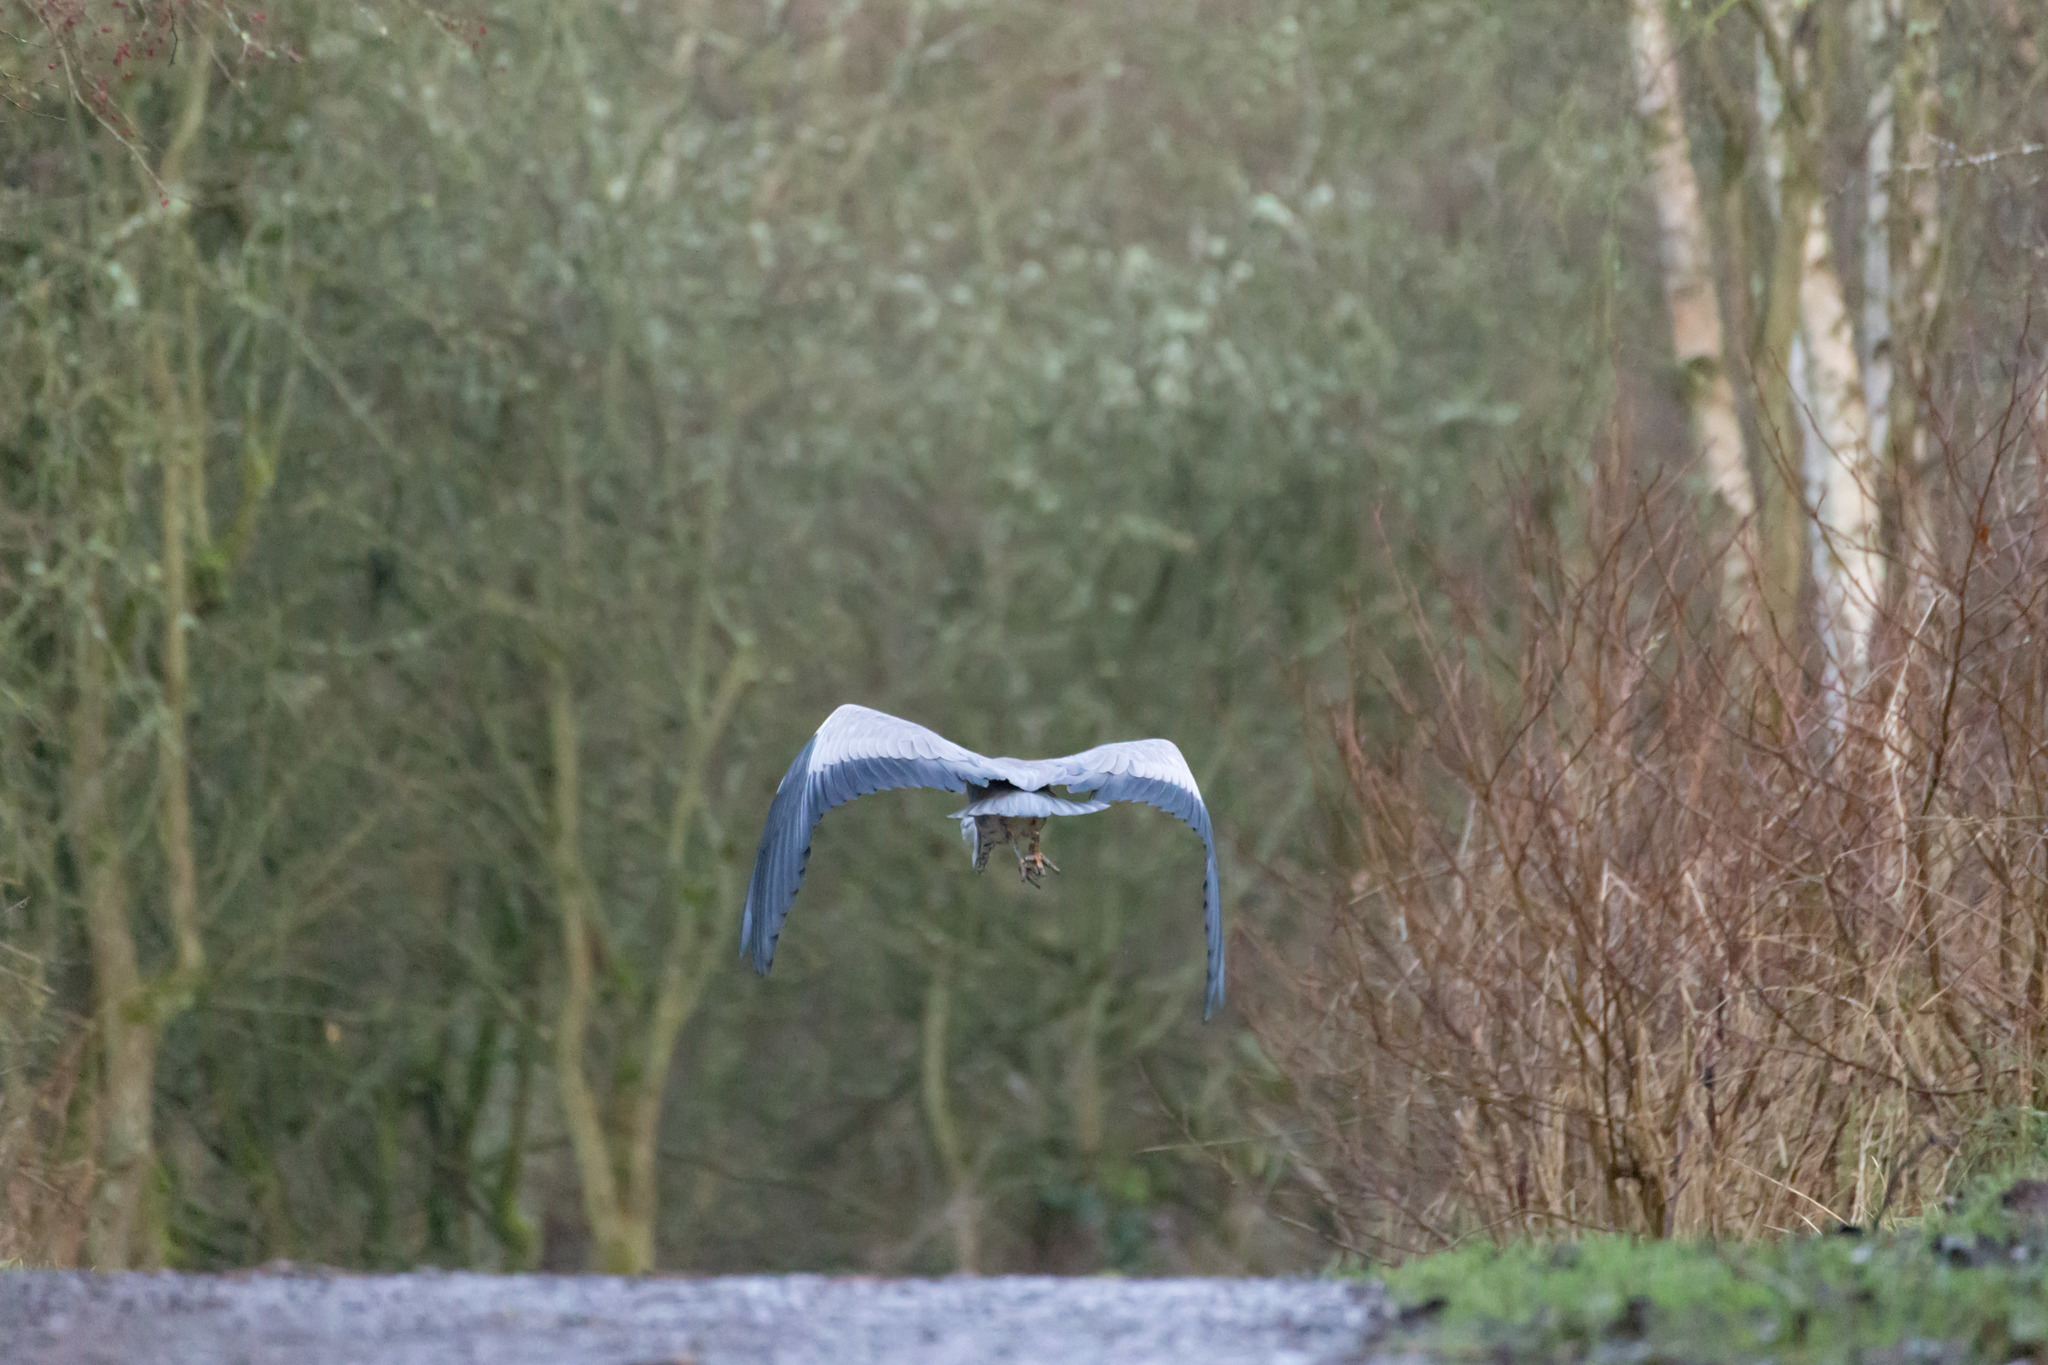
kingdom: Animalia
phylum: Chordata
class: Aves
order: Pelecaniformes
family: Ardeidae
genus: Ardea
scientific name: Ardea cinerea
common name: Grey heron
